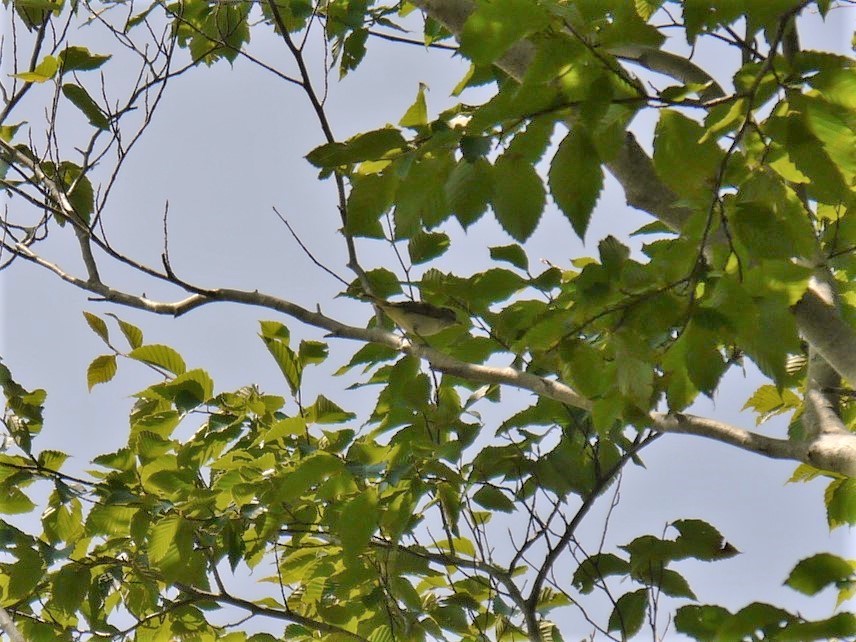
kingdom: Animalia
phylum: Chordata
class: Aves
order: Passeriformes
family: Vireonidae
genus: Vireo
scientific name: Vireo olivaceus
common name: Red-eyed vireo
